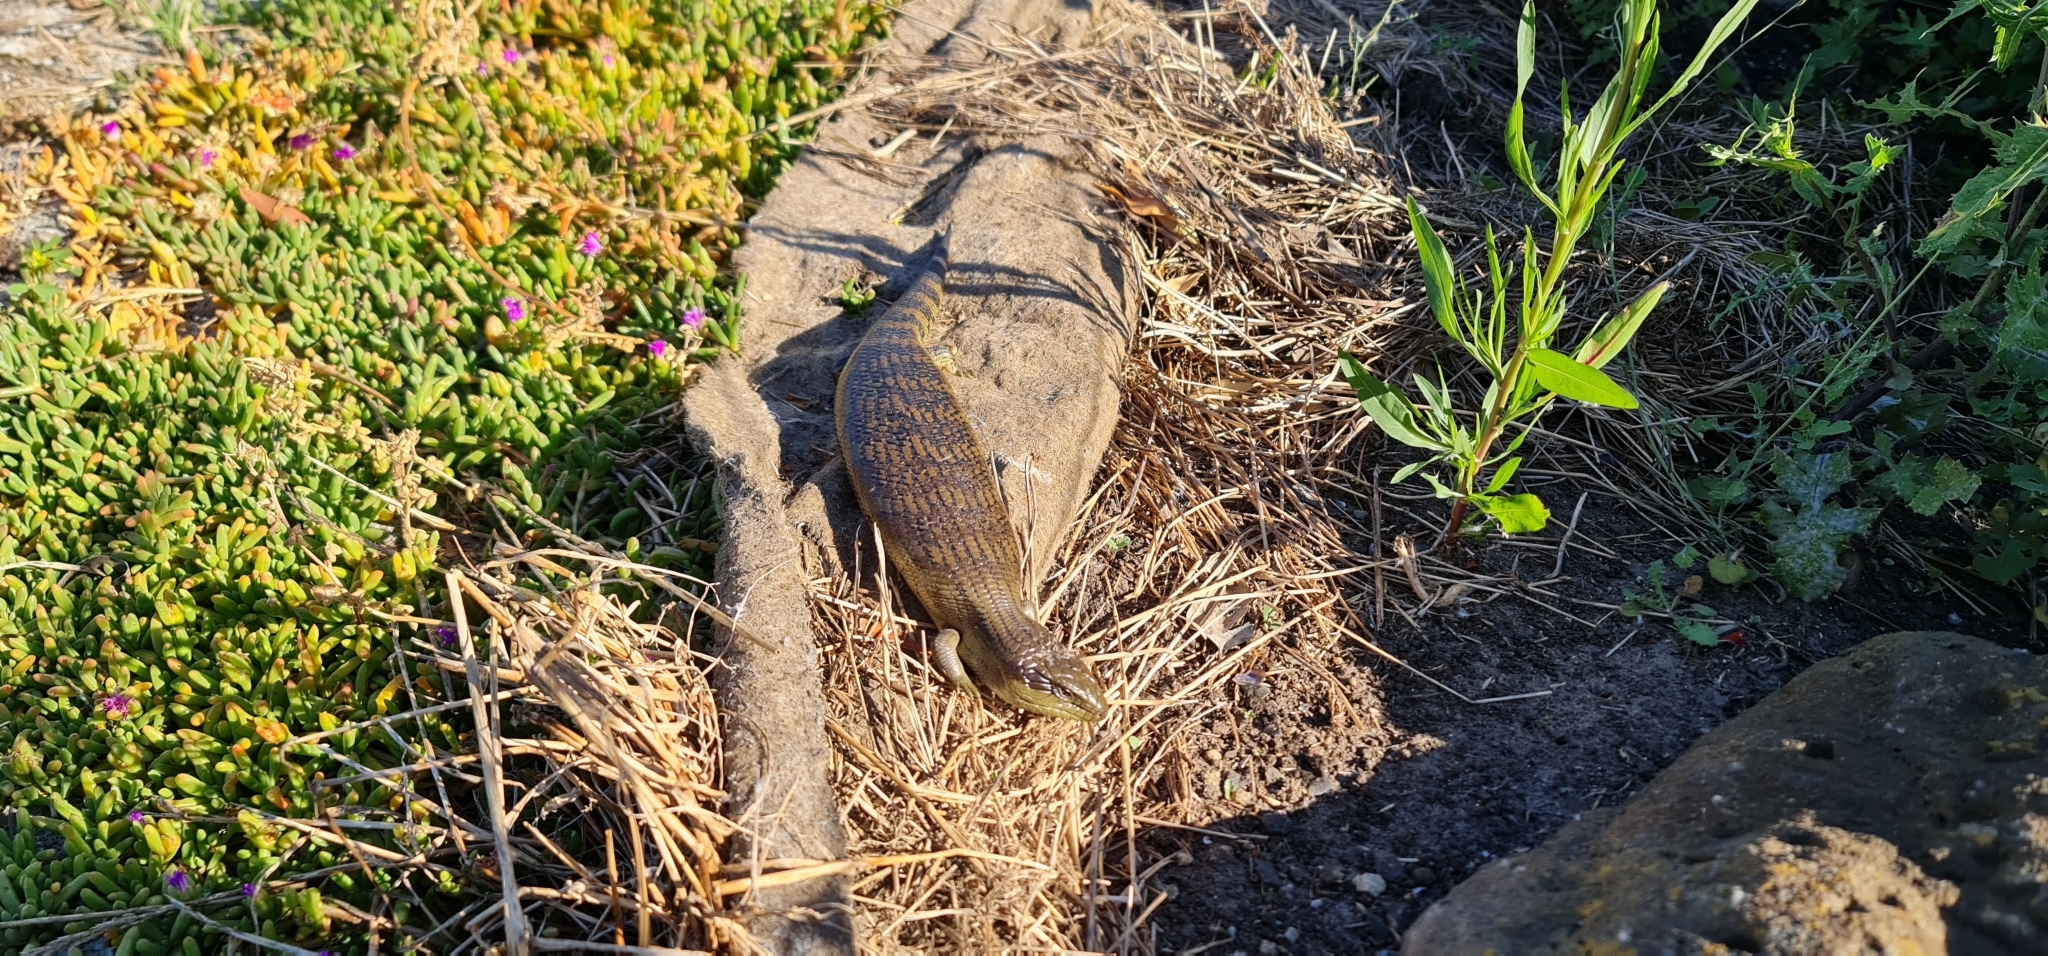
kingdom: Animalia
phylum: Chordata
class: Squamata
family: Scincidae
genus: Tiliqua
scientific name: Tiliqua scincoides
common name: Common bluetongue
